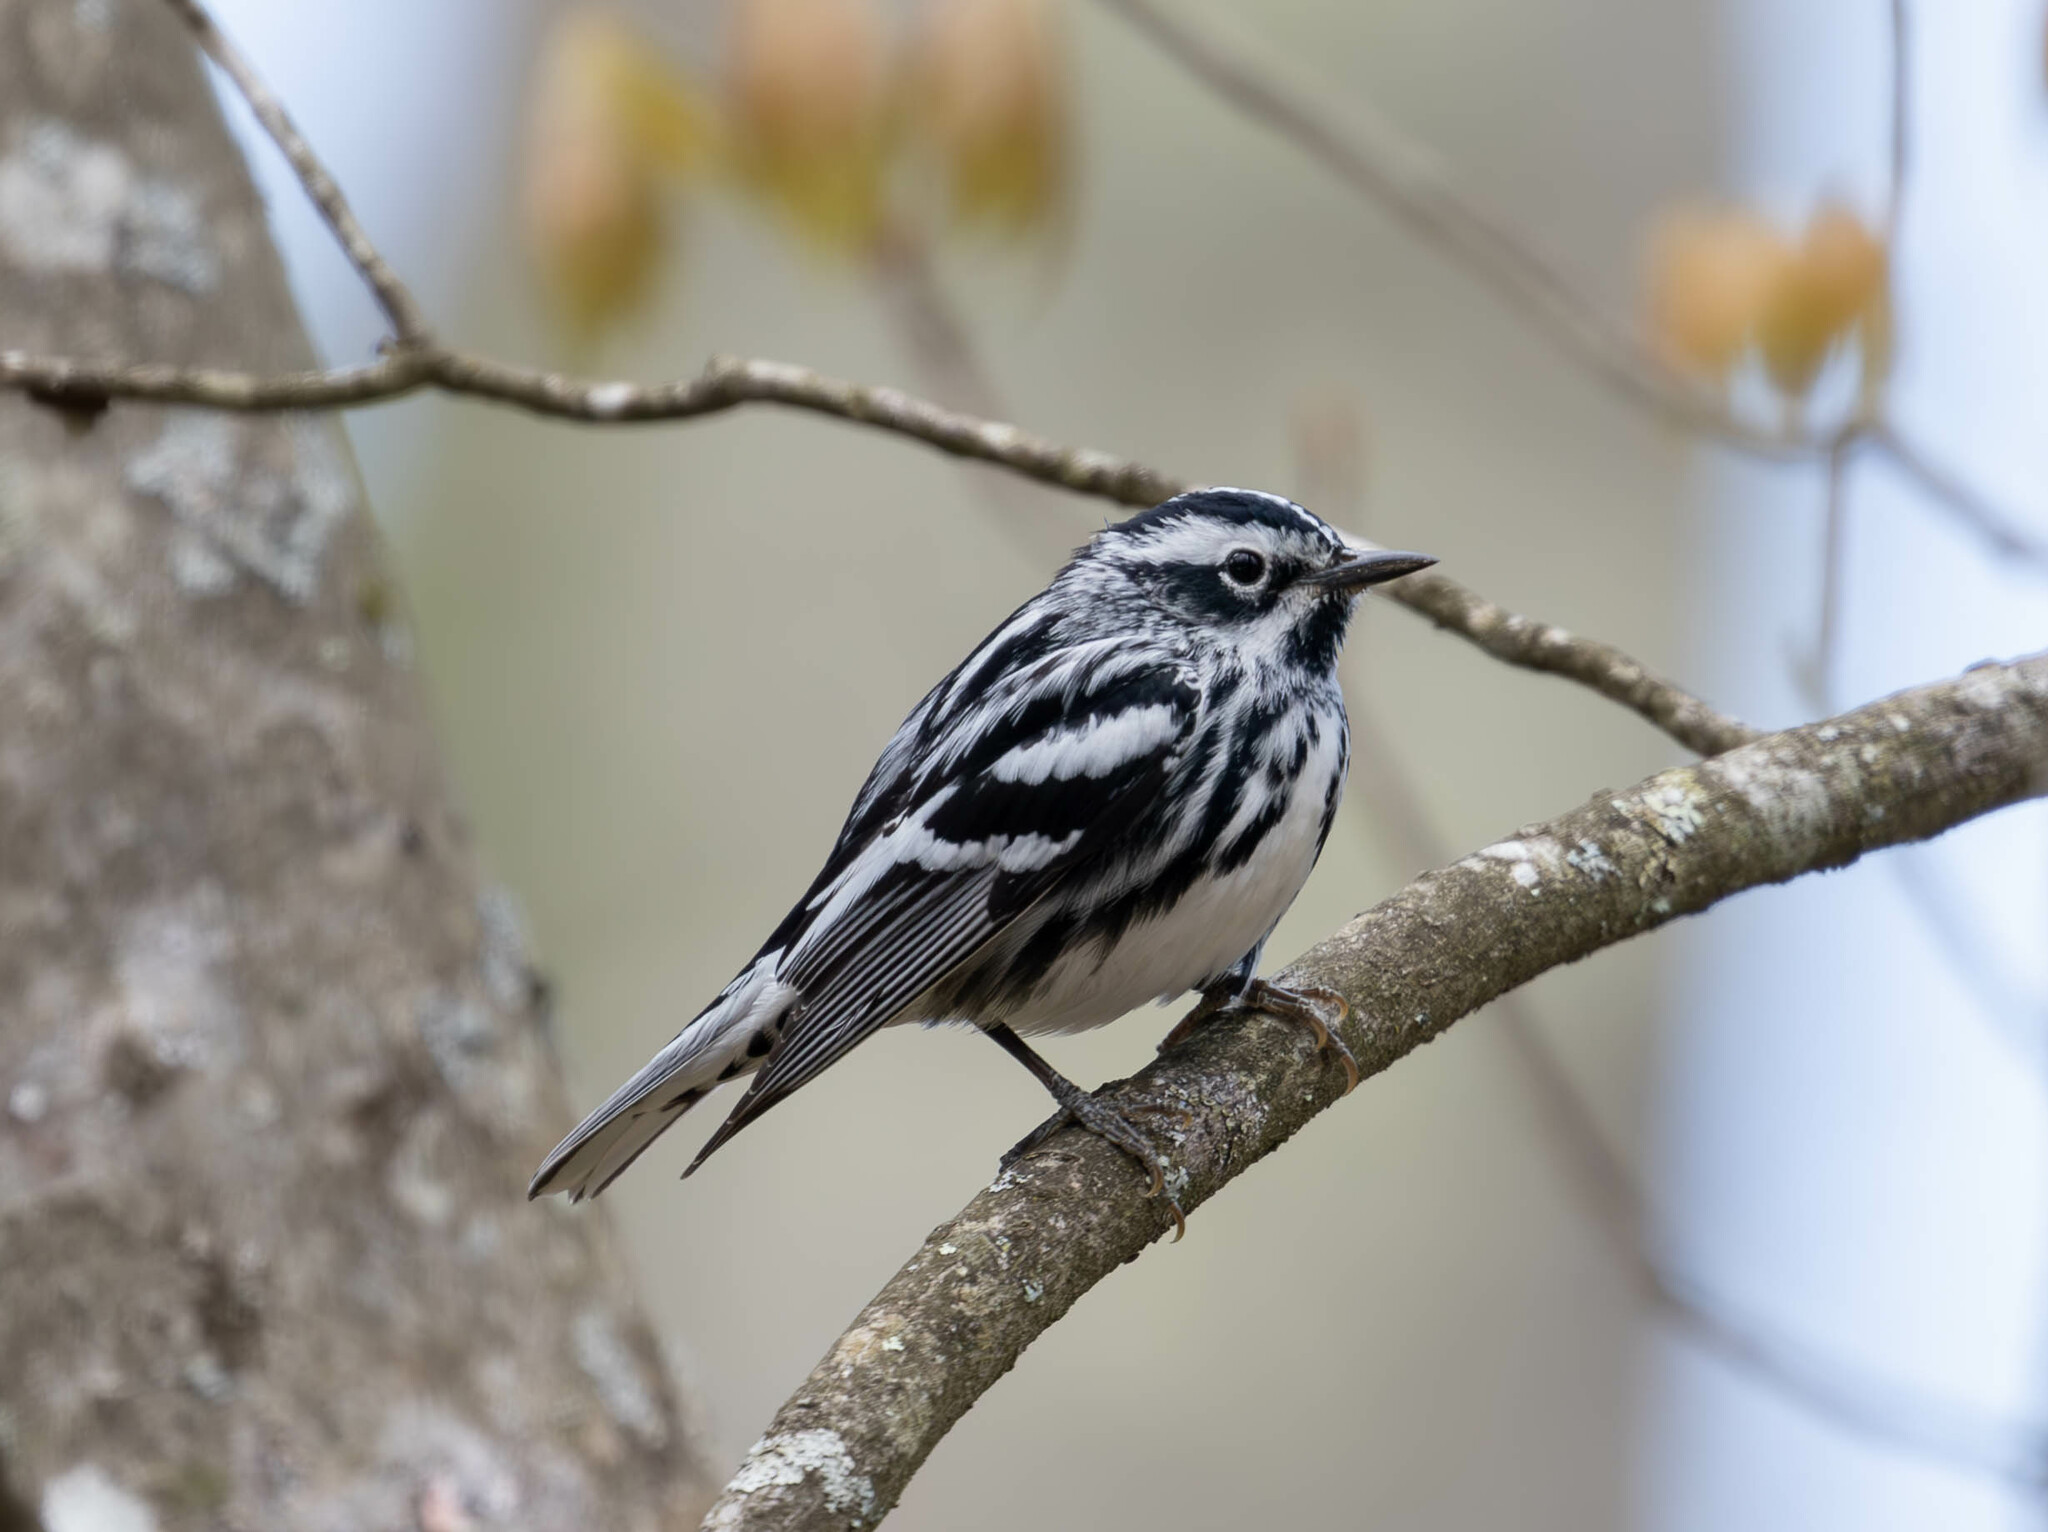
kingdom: Animalia
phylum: Chordata
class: Aves
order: Passeriformes
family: Parulidae
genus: Mniotilta
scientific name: Mniotilta varia
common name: Black-and-white warbler
